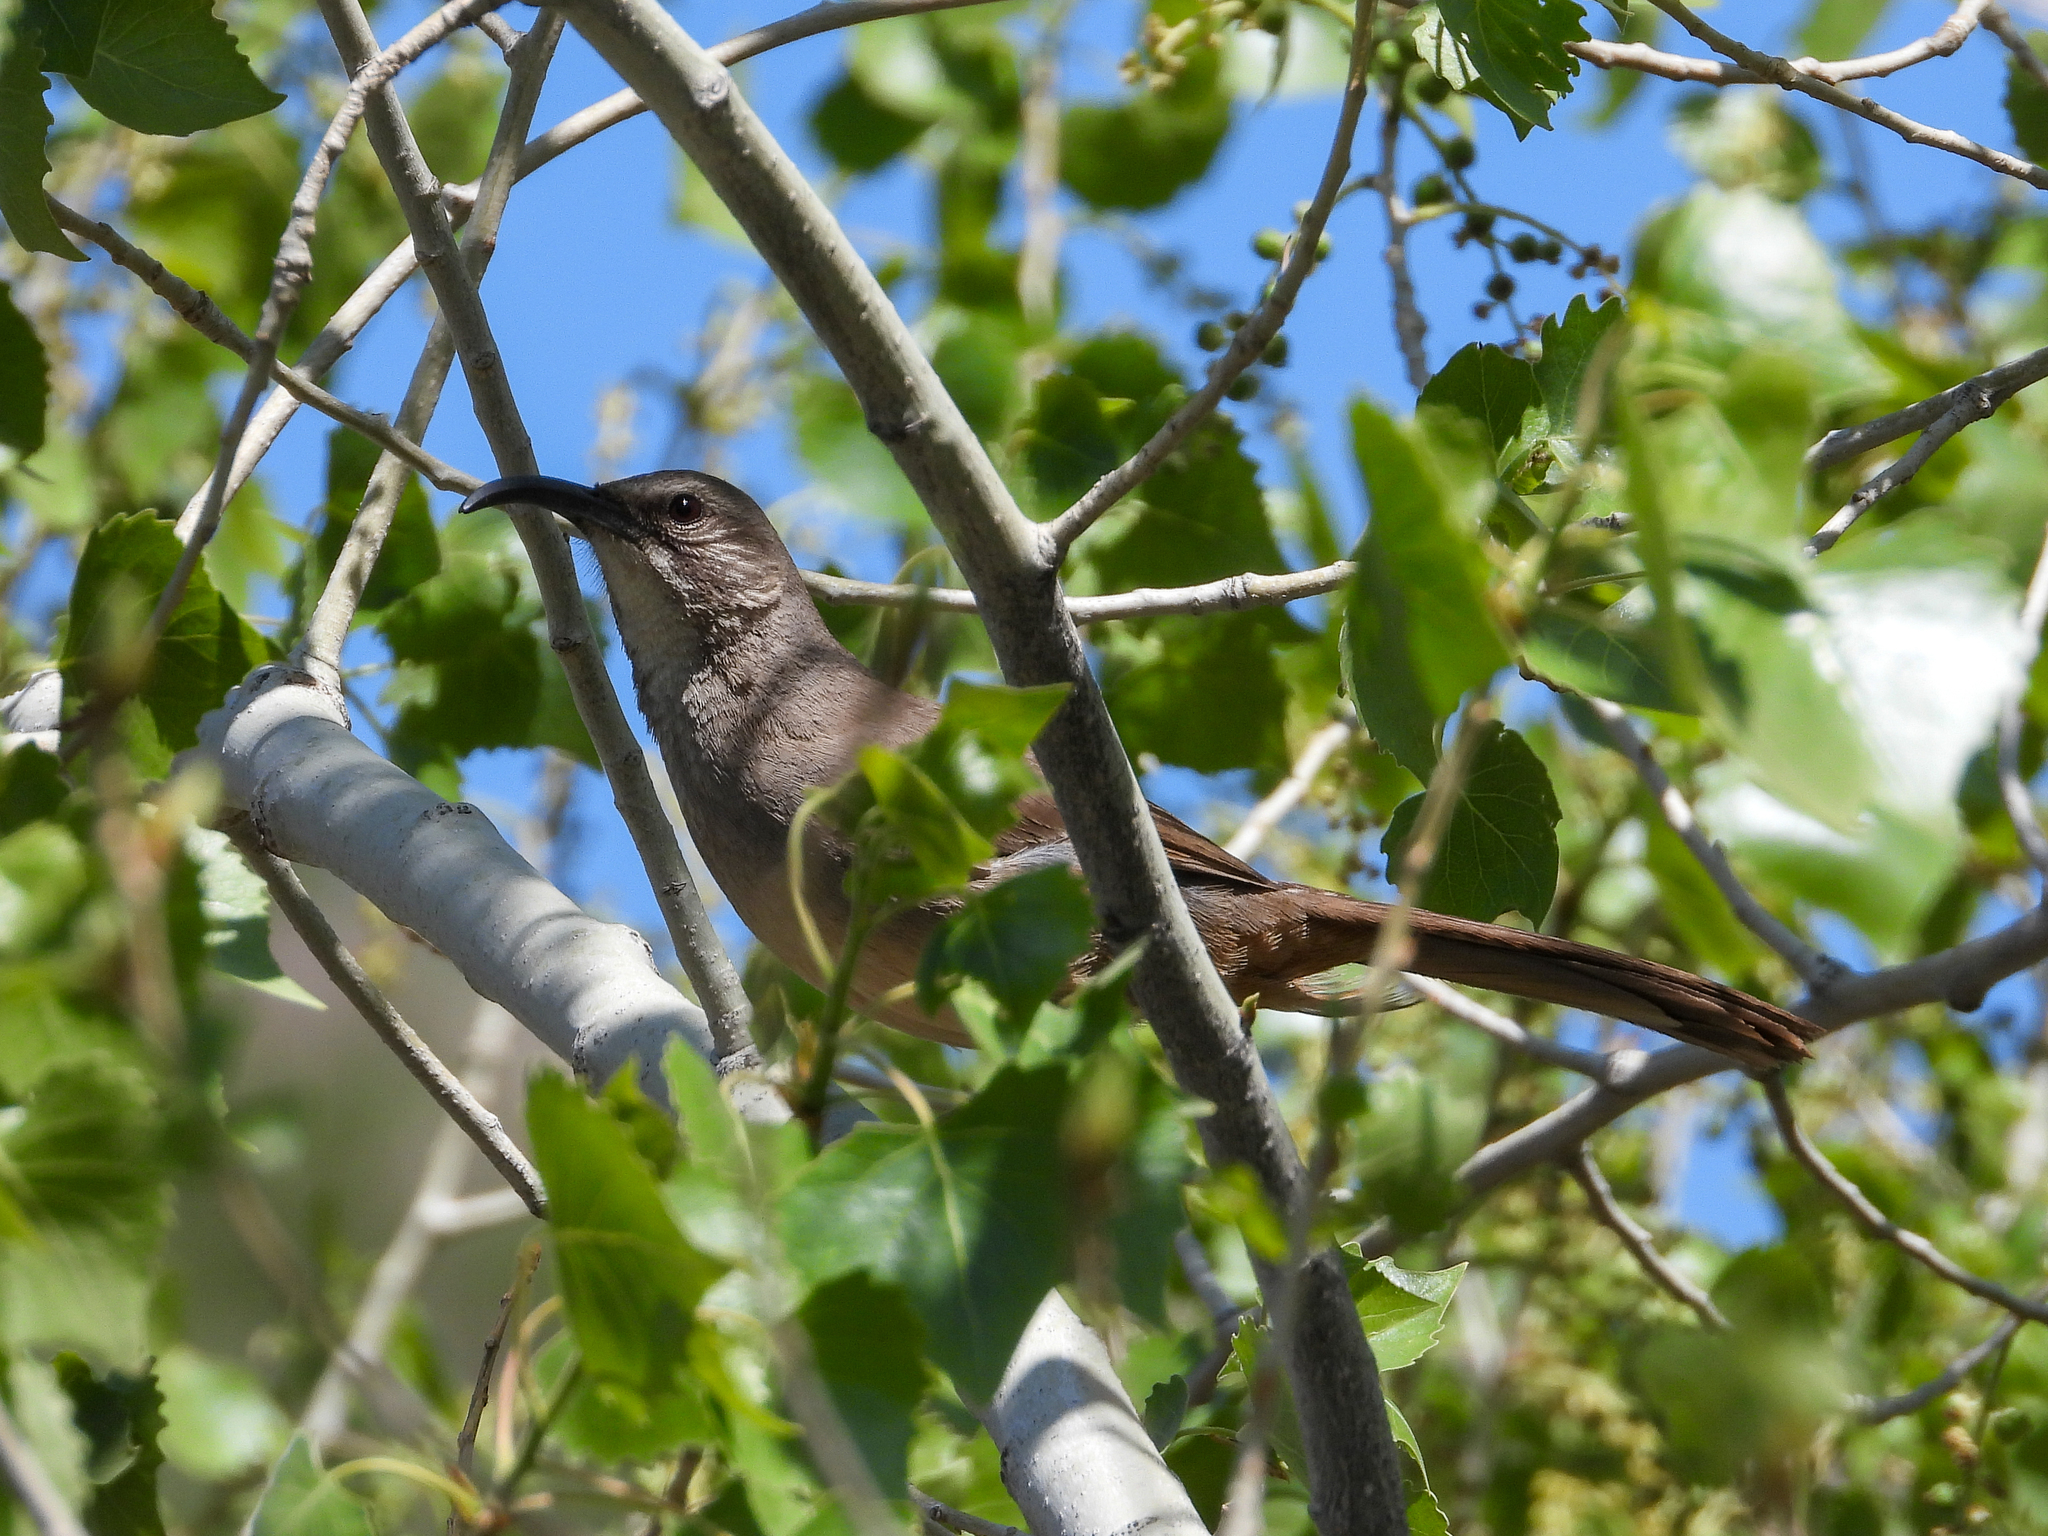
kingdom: Animalia
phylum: Chordata
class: Aves
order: Passeriformes
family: Mimidae
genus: Toxostoma
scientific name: Toxostoma redivivum
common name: California thrasher
